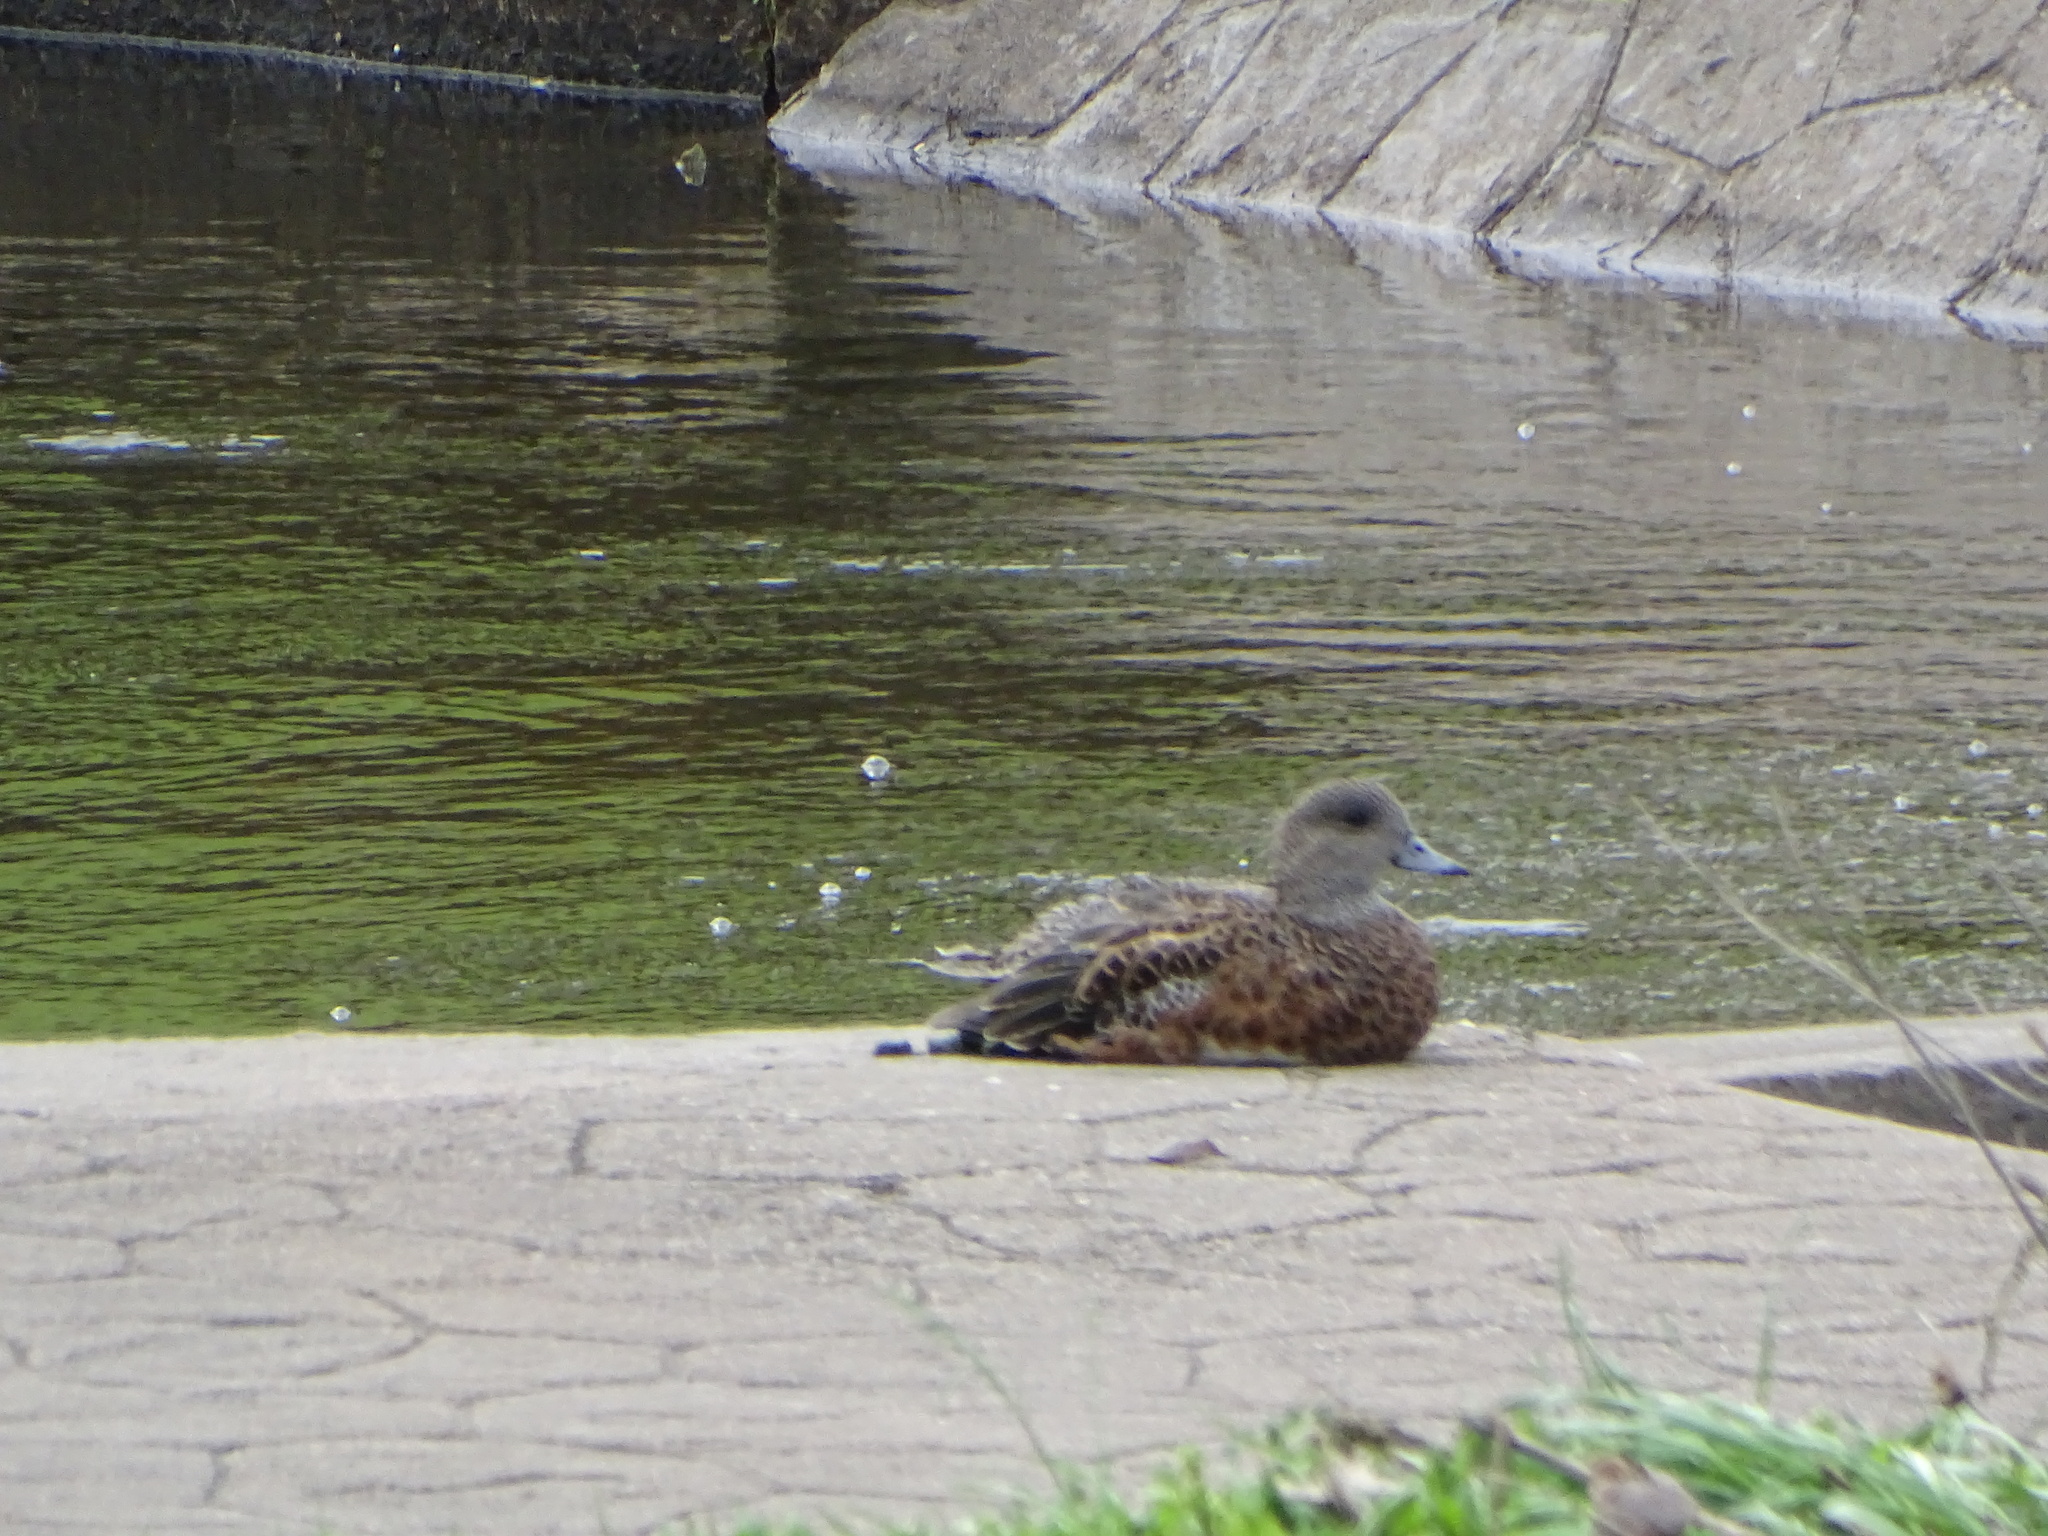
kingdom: Animalia
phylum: Chordata
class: Aves
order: Anseriformes
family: Anatidae
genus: Mareca
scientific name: Mareca americana
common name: American wigeon
